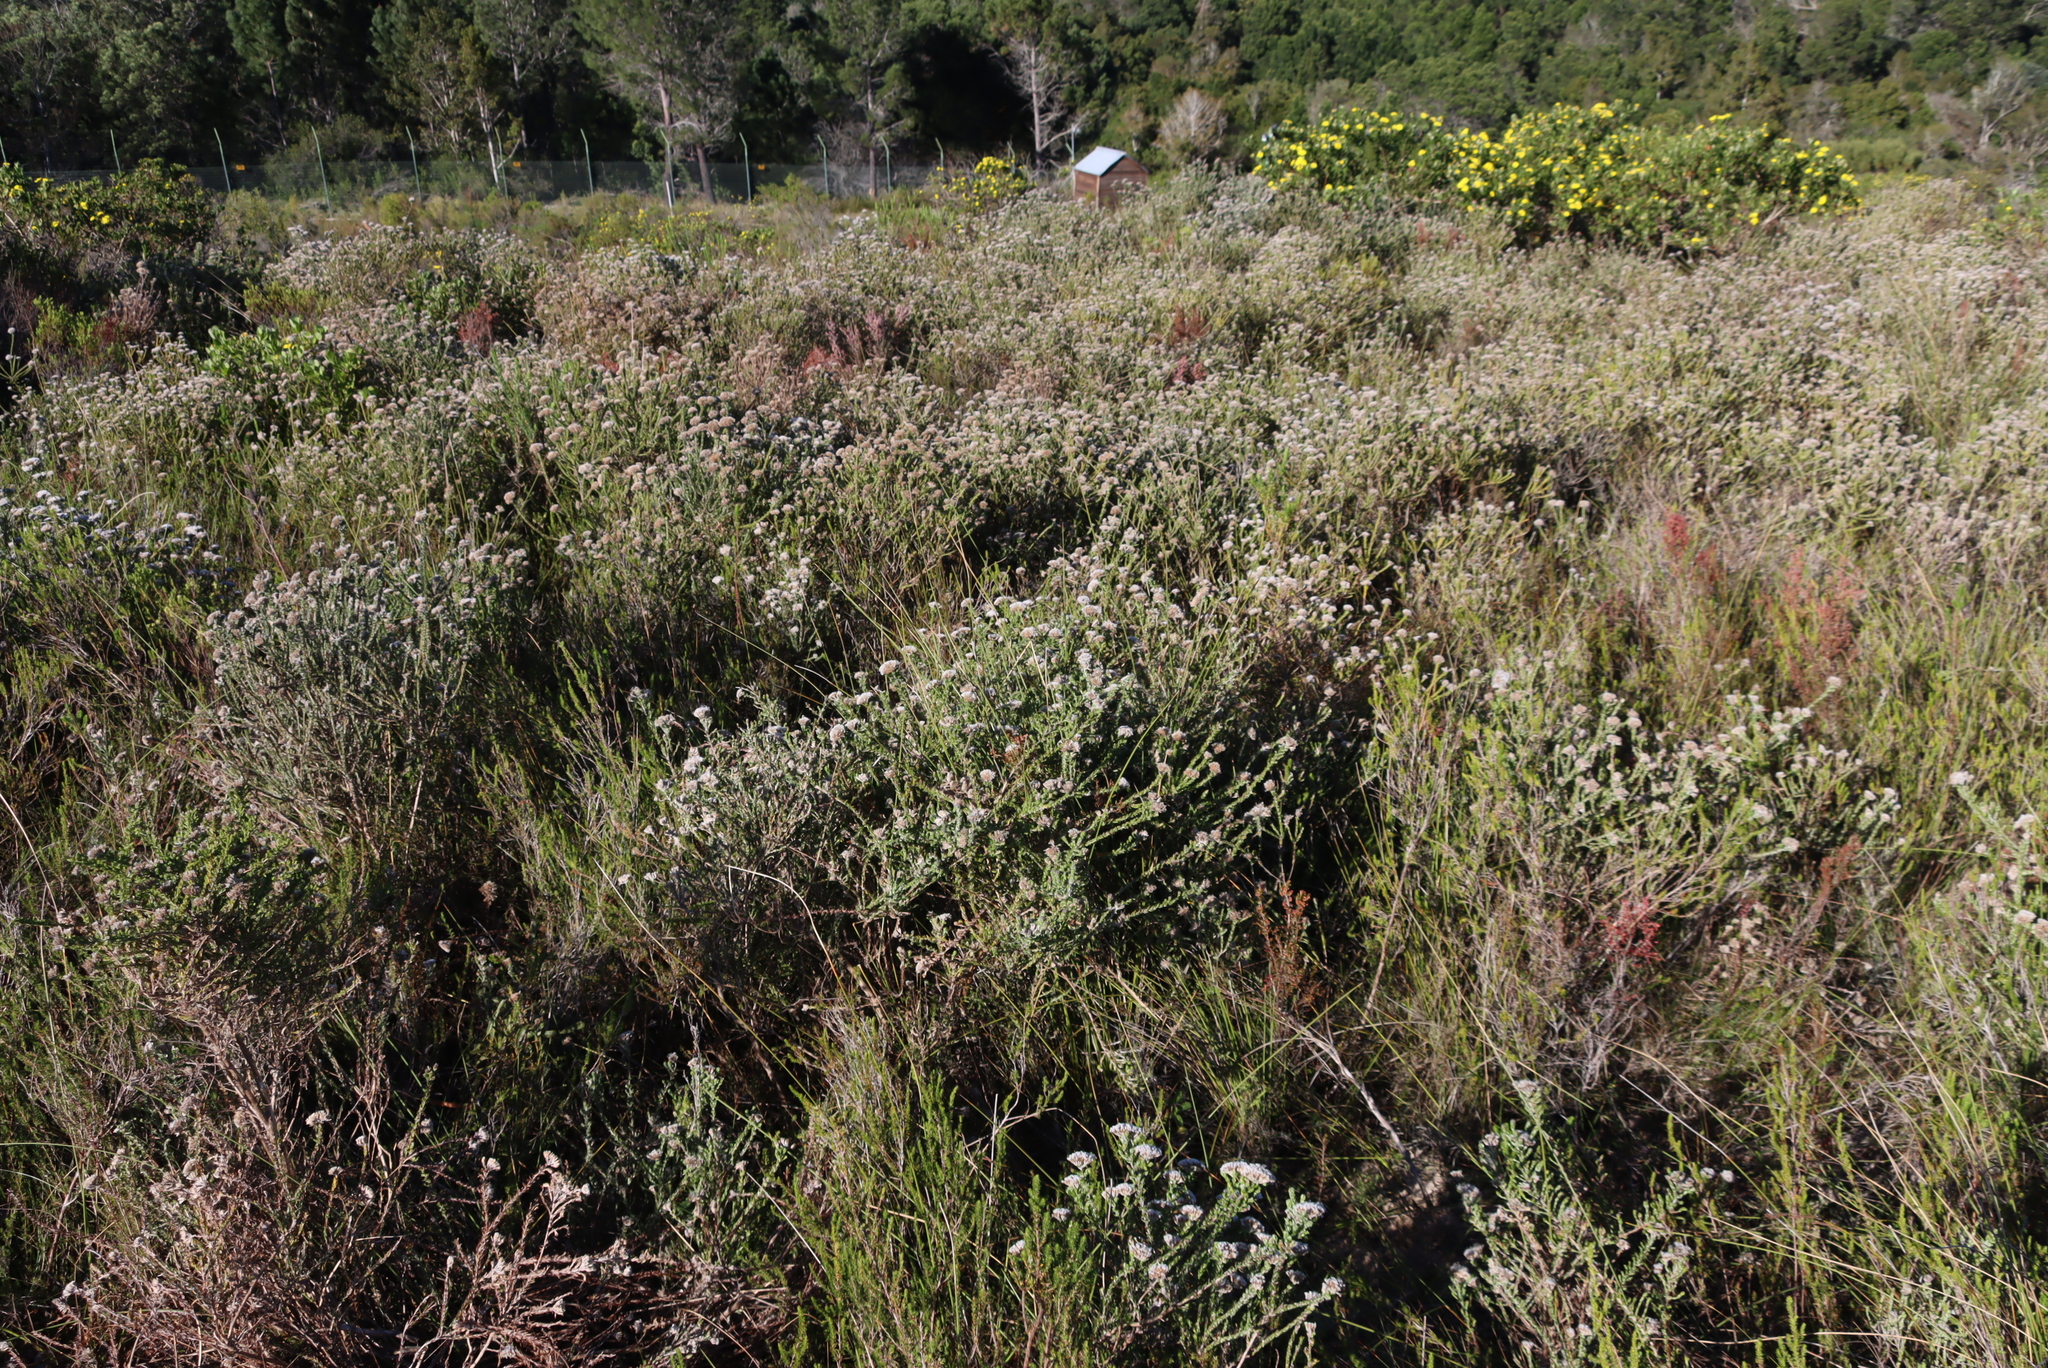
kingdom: Plantae
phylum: Tracheophyta
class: Magnoliopsida
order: Asterales
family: Asteraceae
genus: Metalasia
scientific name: Metalasia pungens
